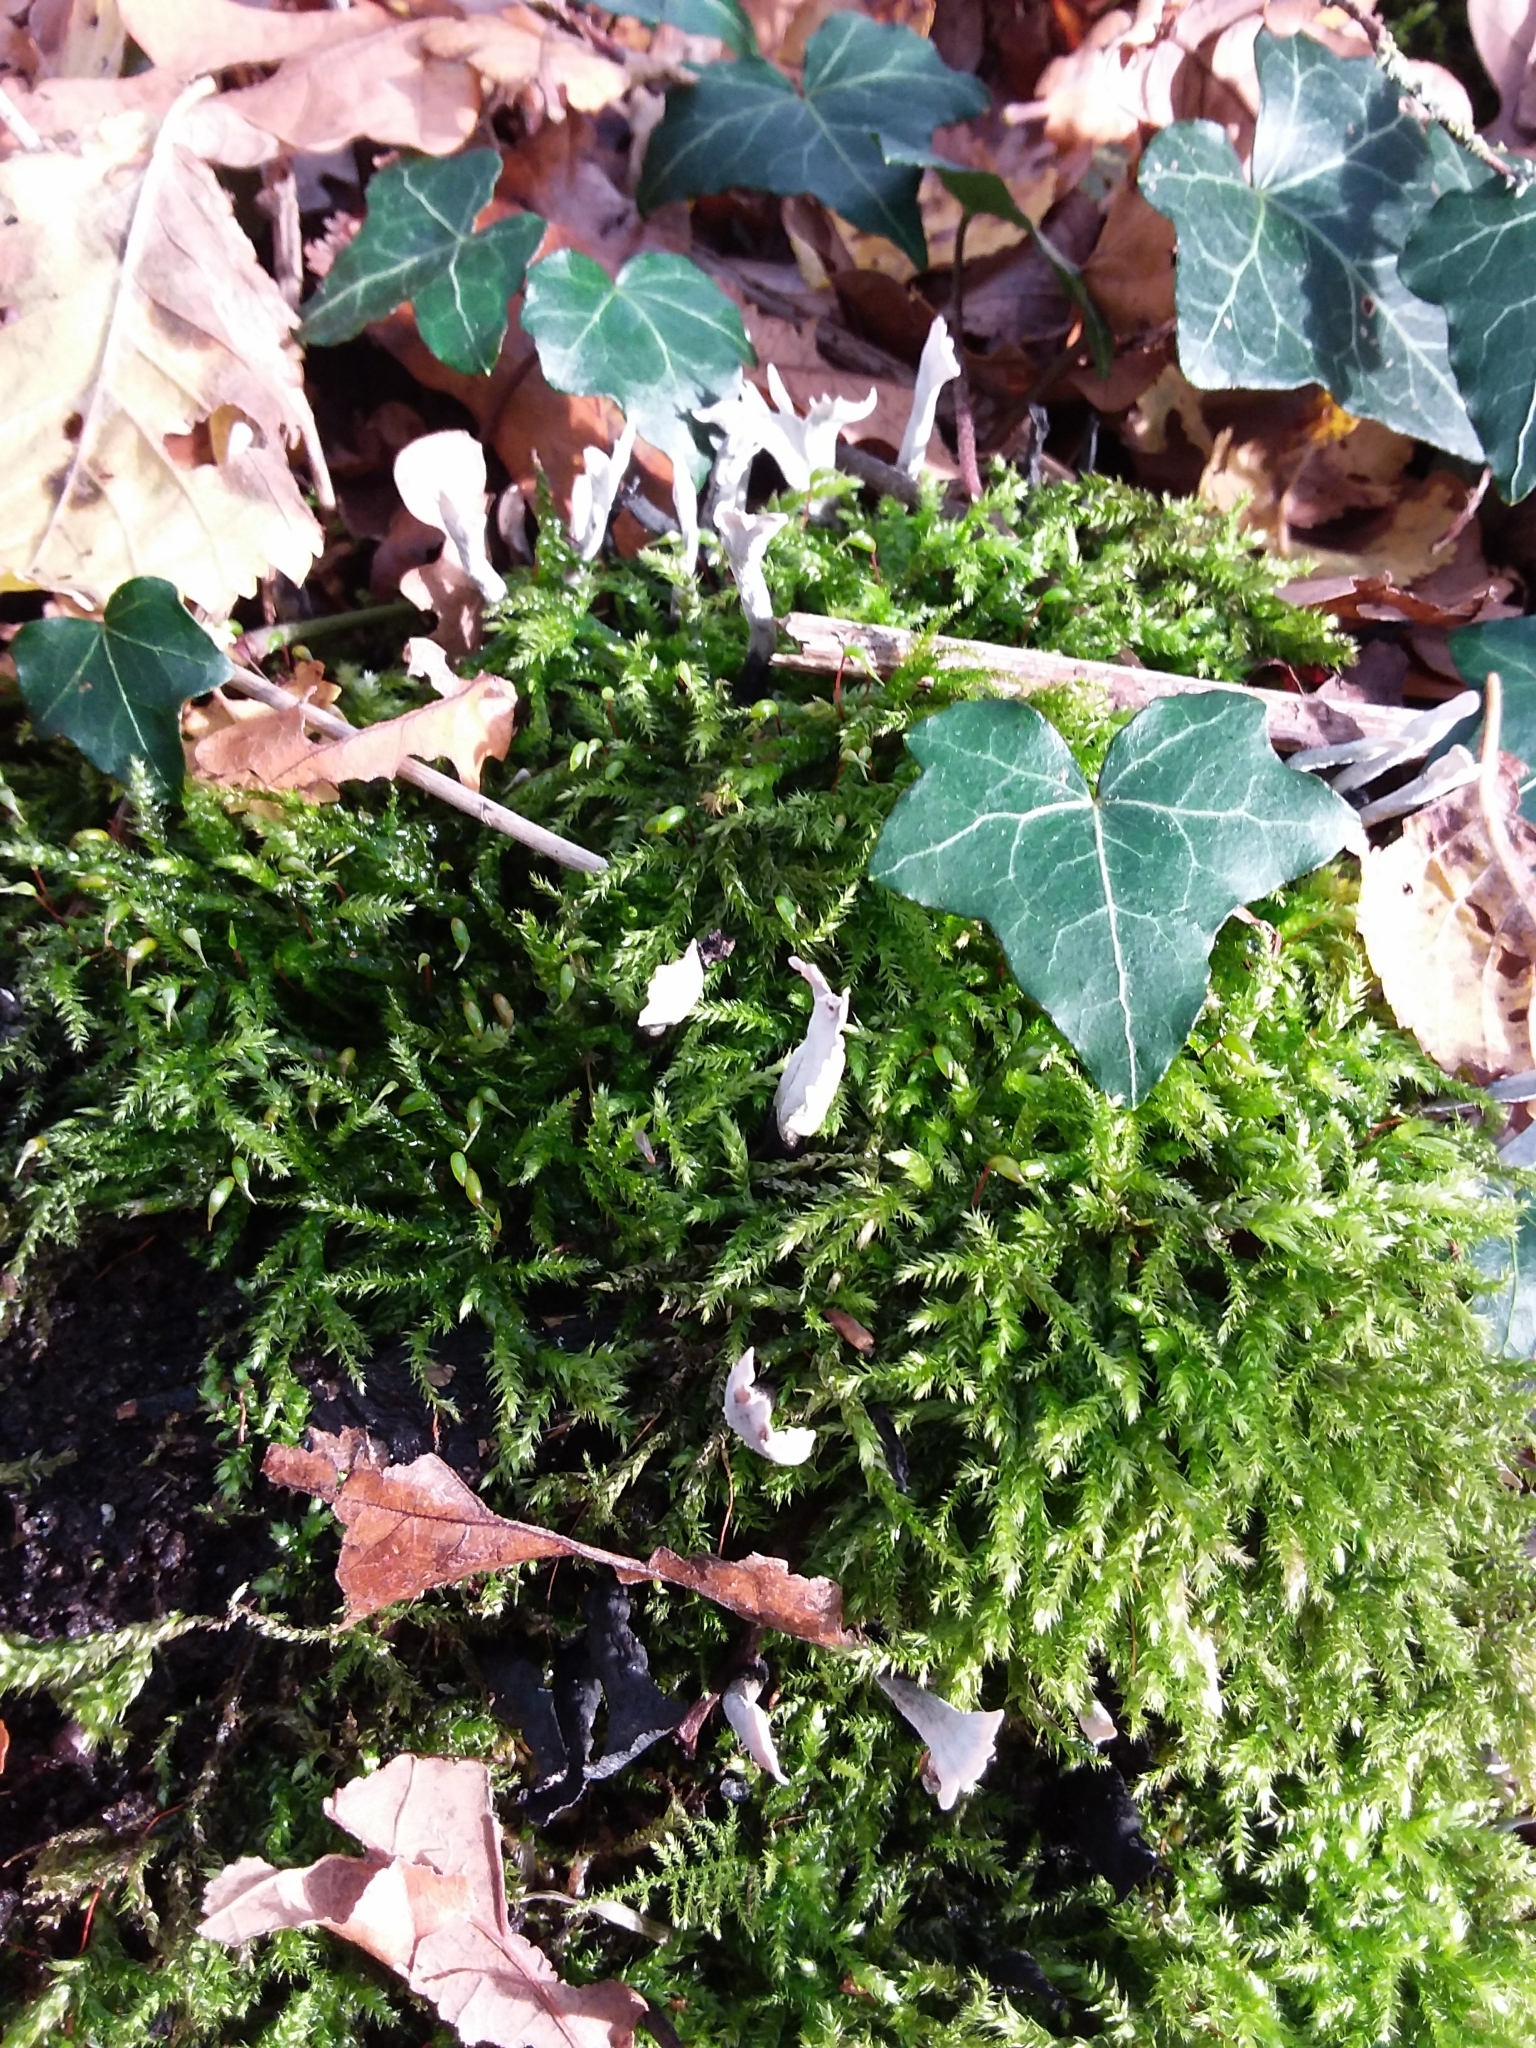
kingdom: Fungi
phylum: Ascomycota
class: Sordariomycetes
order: Xylariales
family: Xylariaceae
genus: Xylaria
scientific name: Xylaria hypoxylon
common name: Candle-snuff fungus
